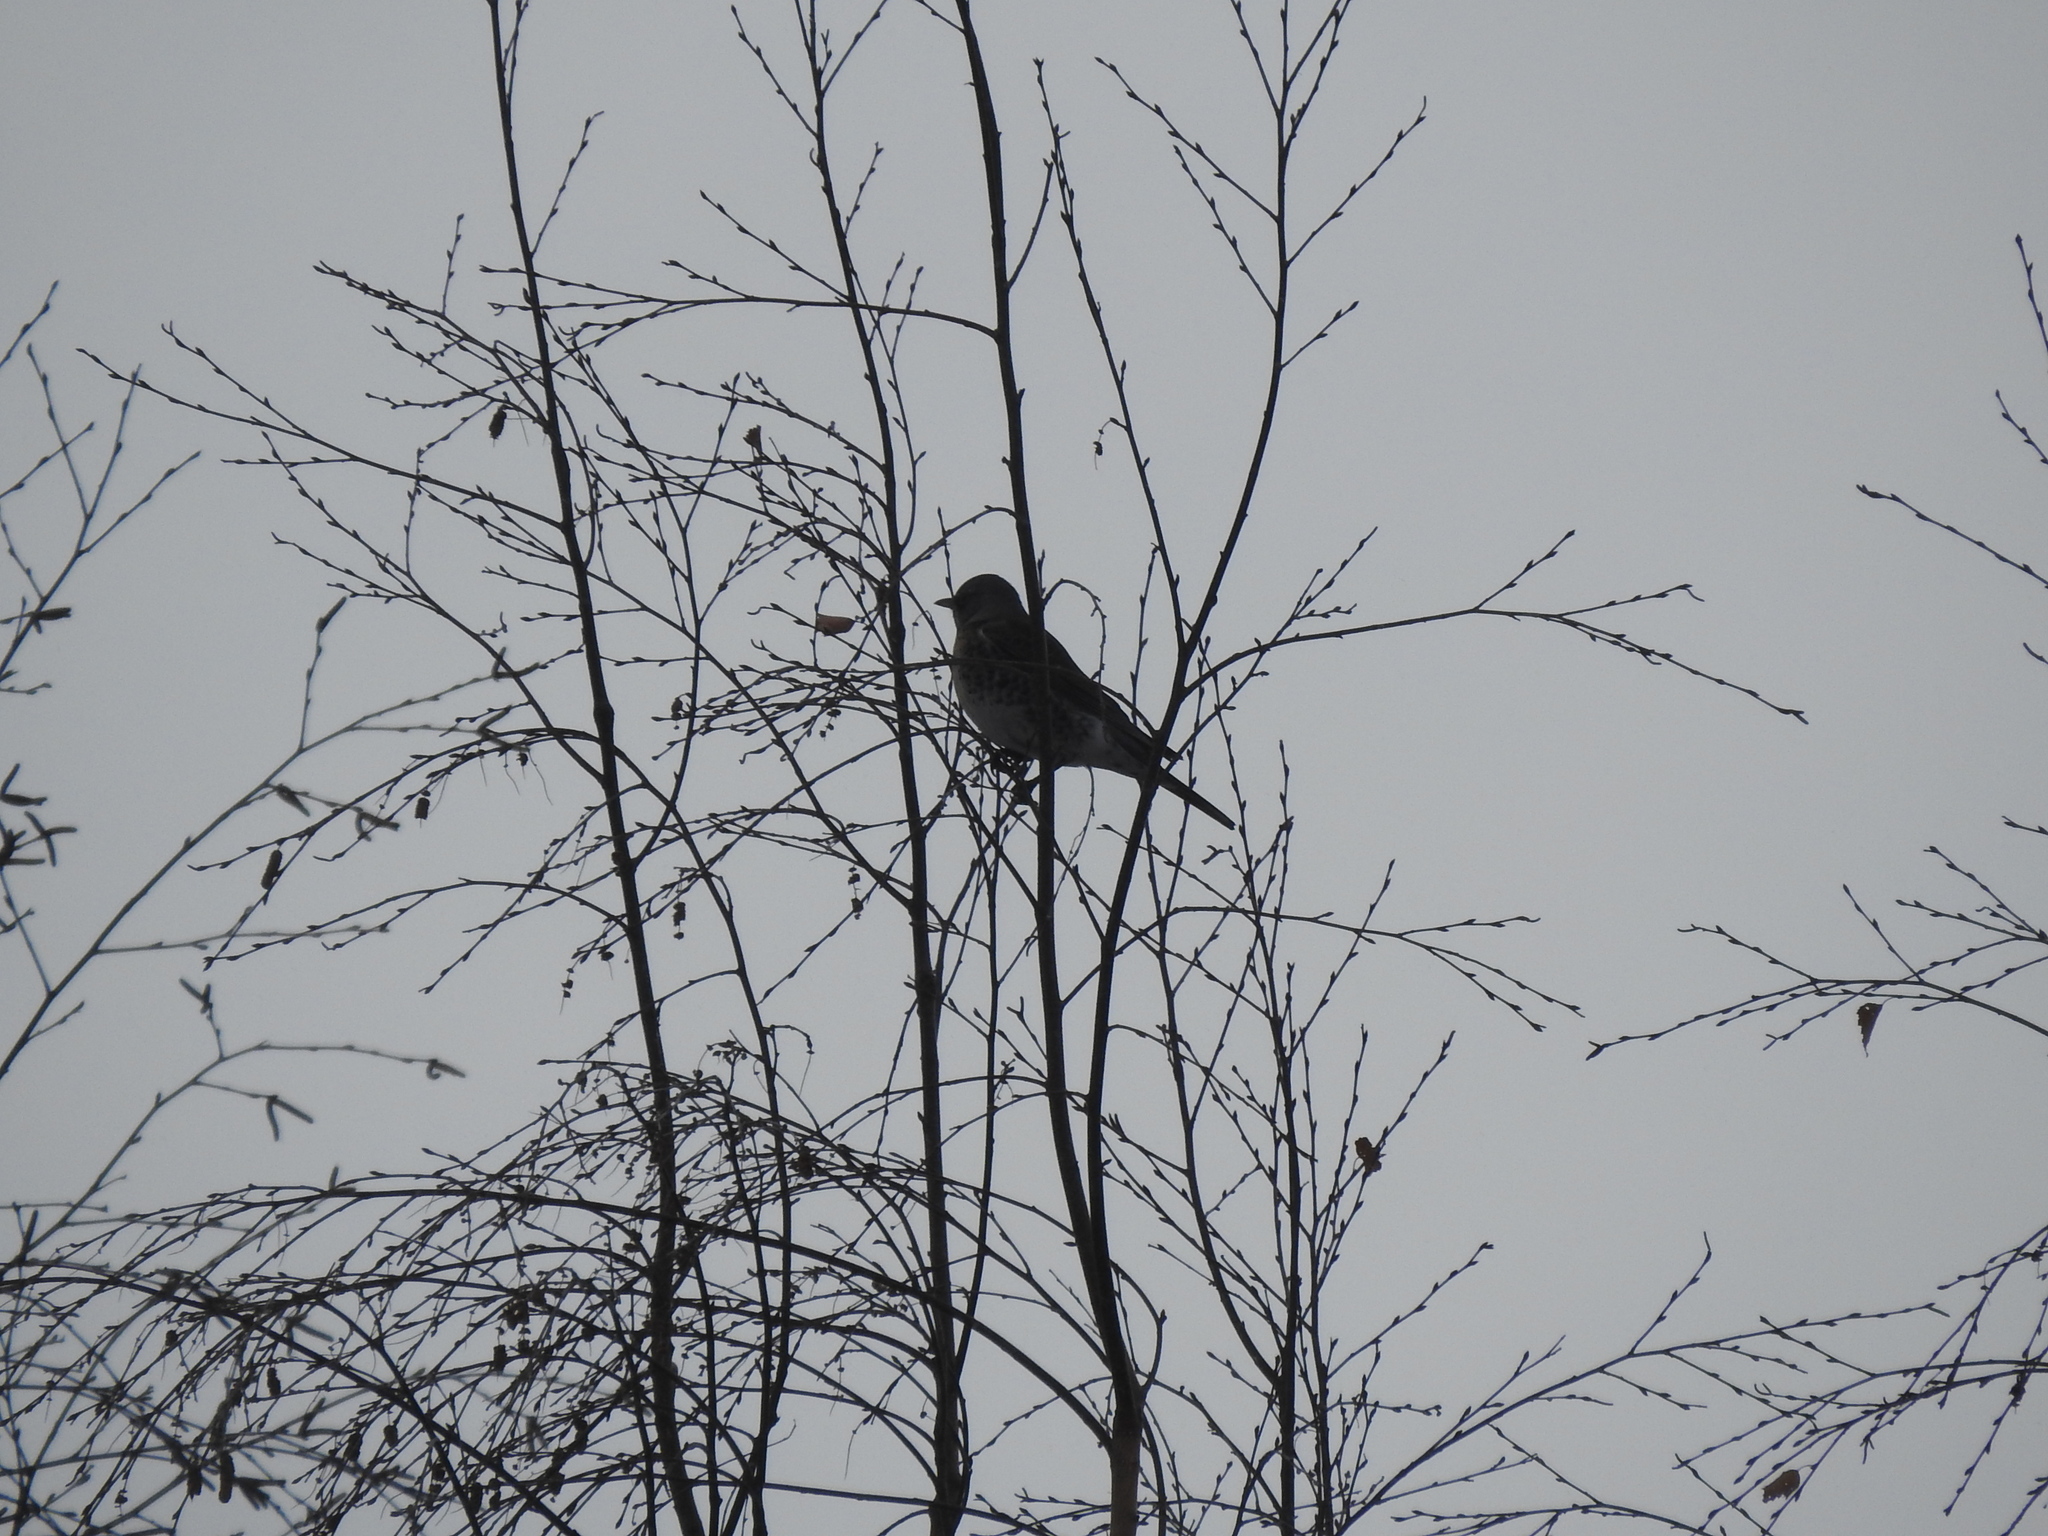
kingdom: Animalia
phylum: Chordata
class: Aves
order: Passeriformes
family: Turdidae
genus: Turdus
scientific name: Turdus pilaris
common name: Fieldfare
